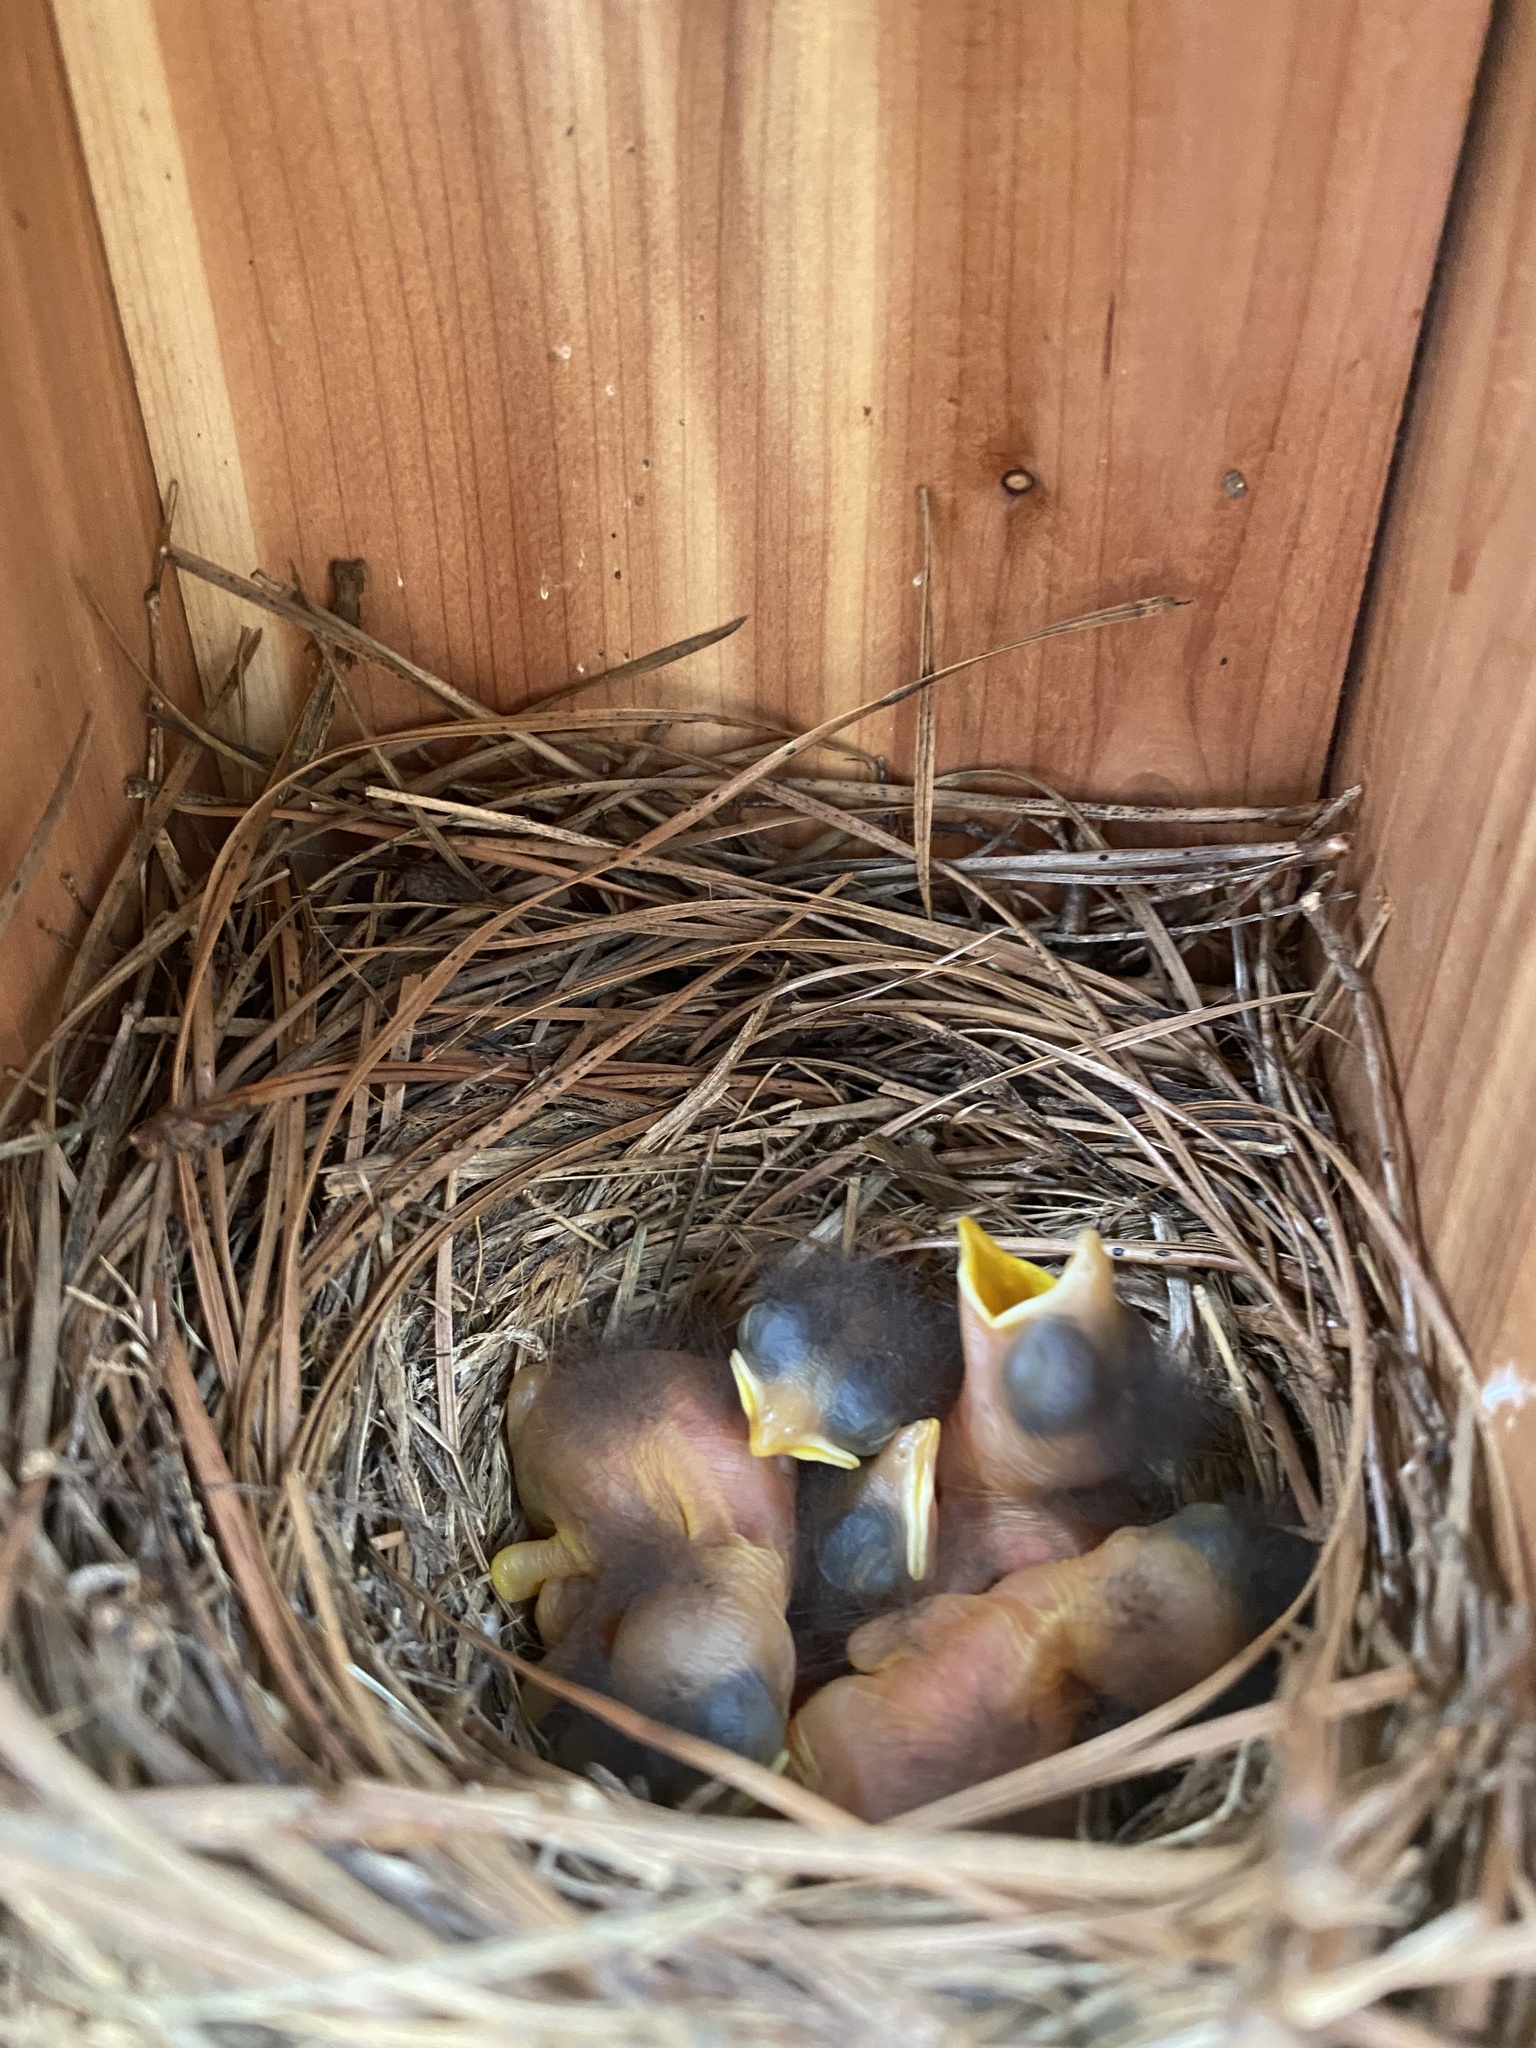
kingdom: Animalia
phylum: Chordata
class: Aves
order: Passeriformes
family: Turdidae
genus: Sialia
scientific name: Sialia sialis
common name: Eastern bluebird
